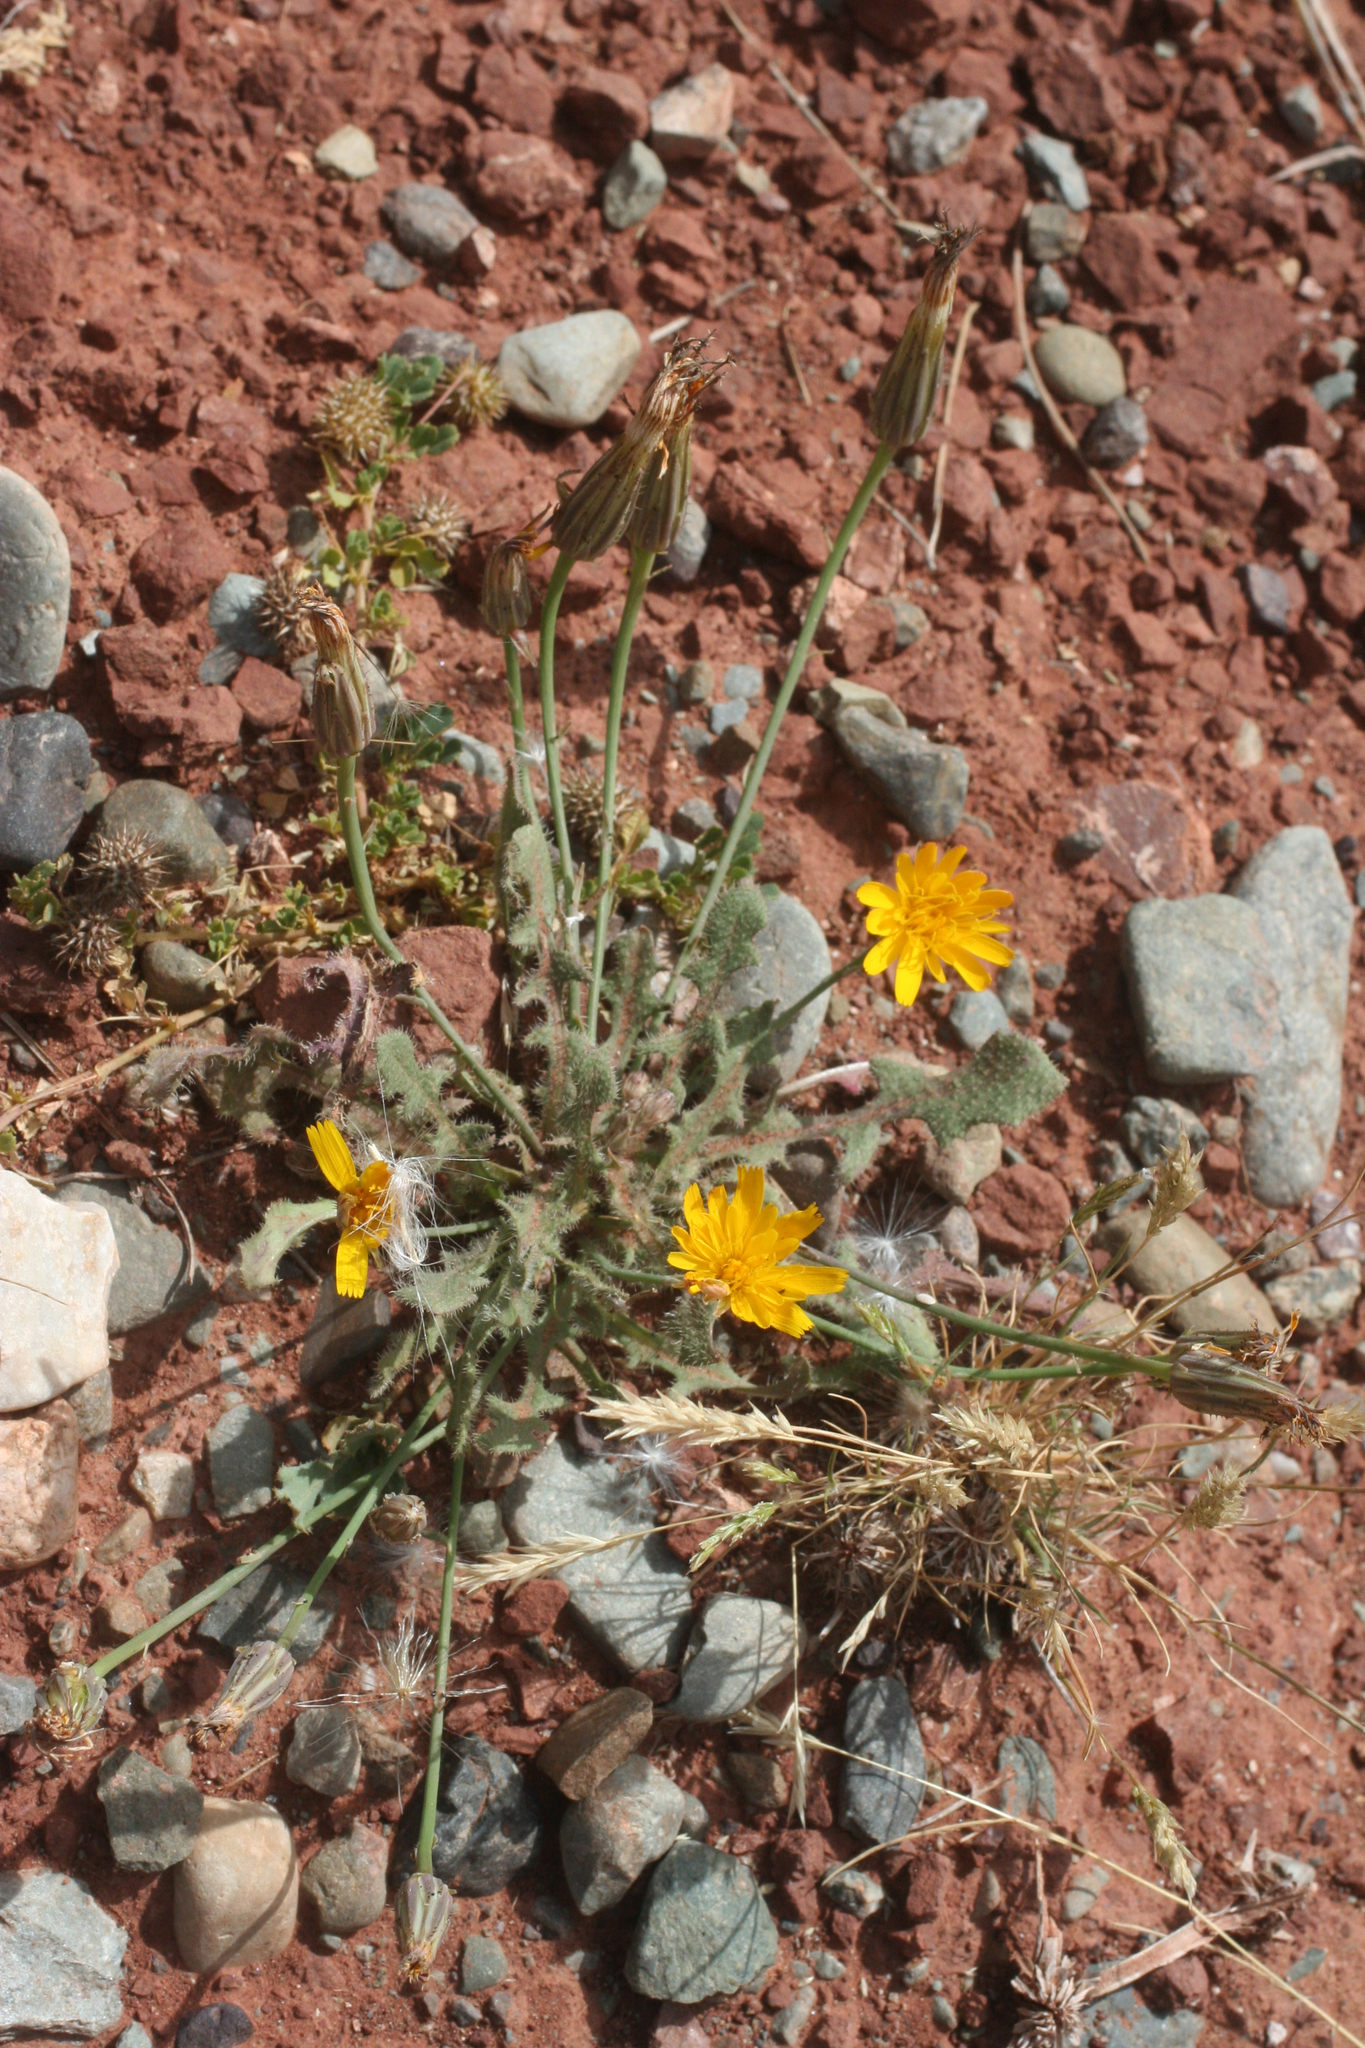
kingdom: Plantae
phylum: Tracheophyta
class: Magnoliopsida
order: Asterales
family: Asteraceae
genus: Hypochaeris
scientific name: Hypochaeris radicata
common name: Flatweed
